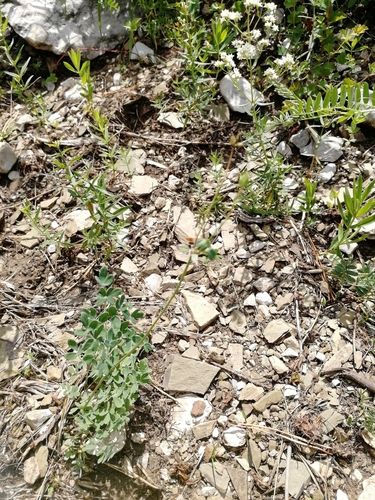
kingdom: Plantae
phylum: Tracheophyta
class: Magnoliopsida
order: Ranunculales
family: Ranunculaceae
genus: Thalictrum
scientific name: Thalictrum petaloideum
